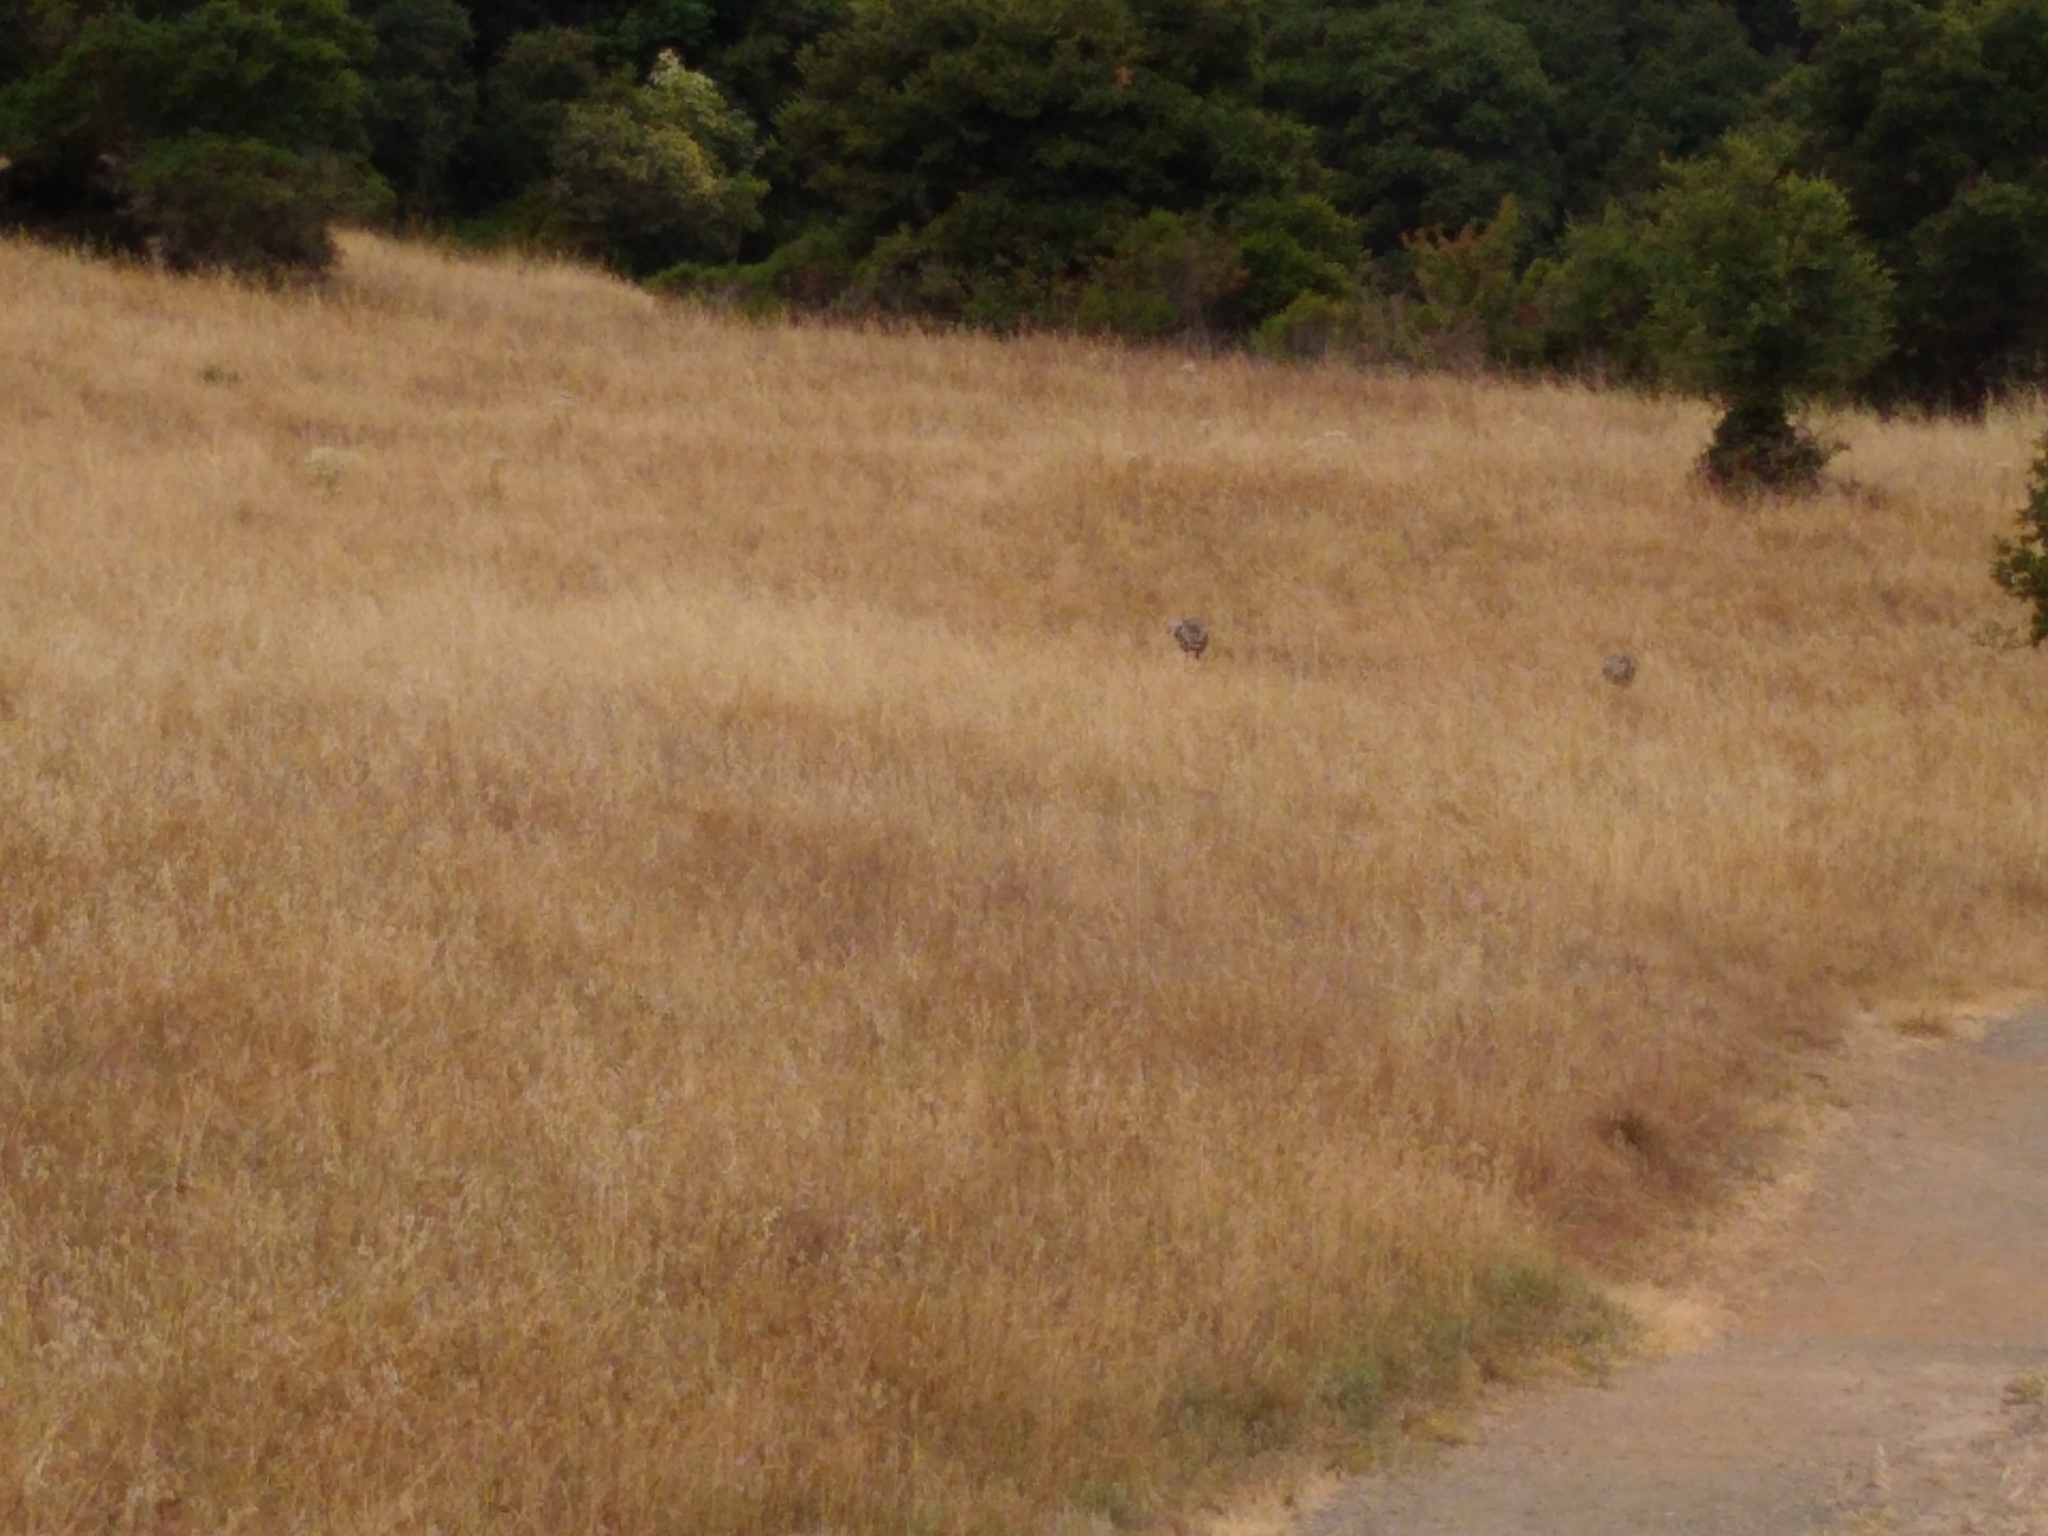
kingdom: Animalia
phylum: Chordata
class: Aves
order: Galliformes
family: Phasianidae
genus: Meleagris
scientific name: Meleagris gallopavo
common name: Wild turkey
